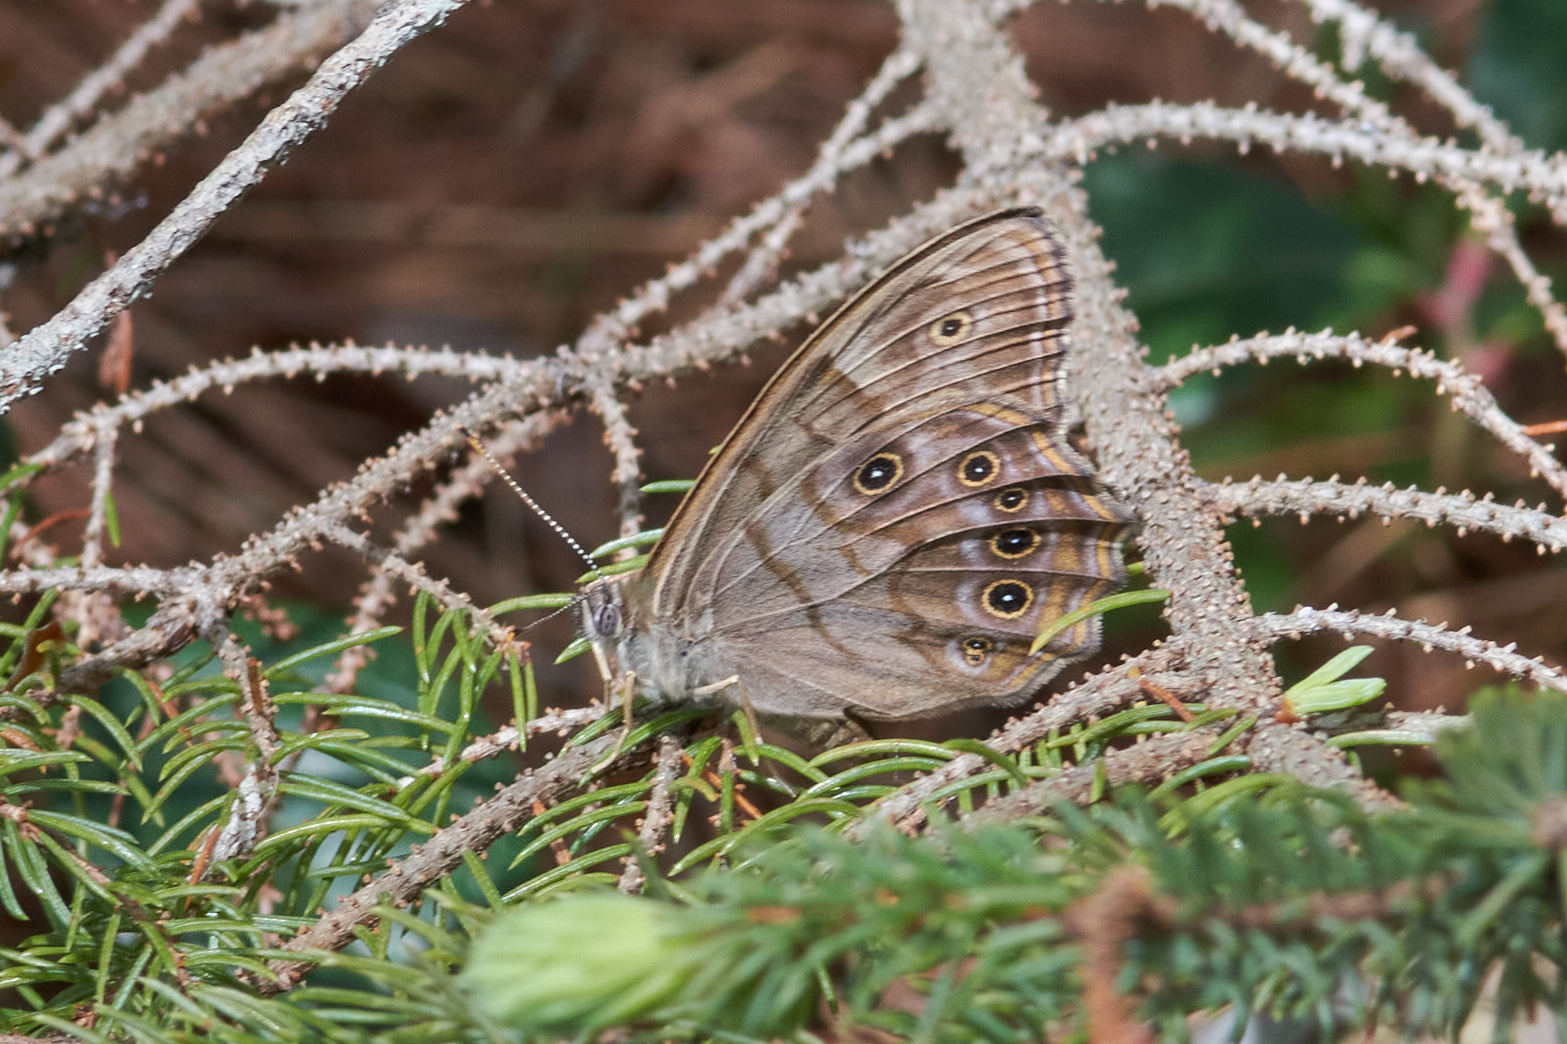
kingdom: Animalia
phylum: Arthropoda
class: Insecta
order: Lepidoptera
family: Nymphalidae
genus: Lethe
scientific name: Lethe anthedon
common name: Northern pearly-eye
